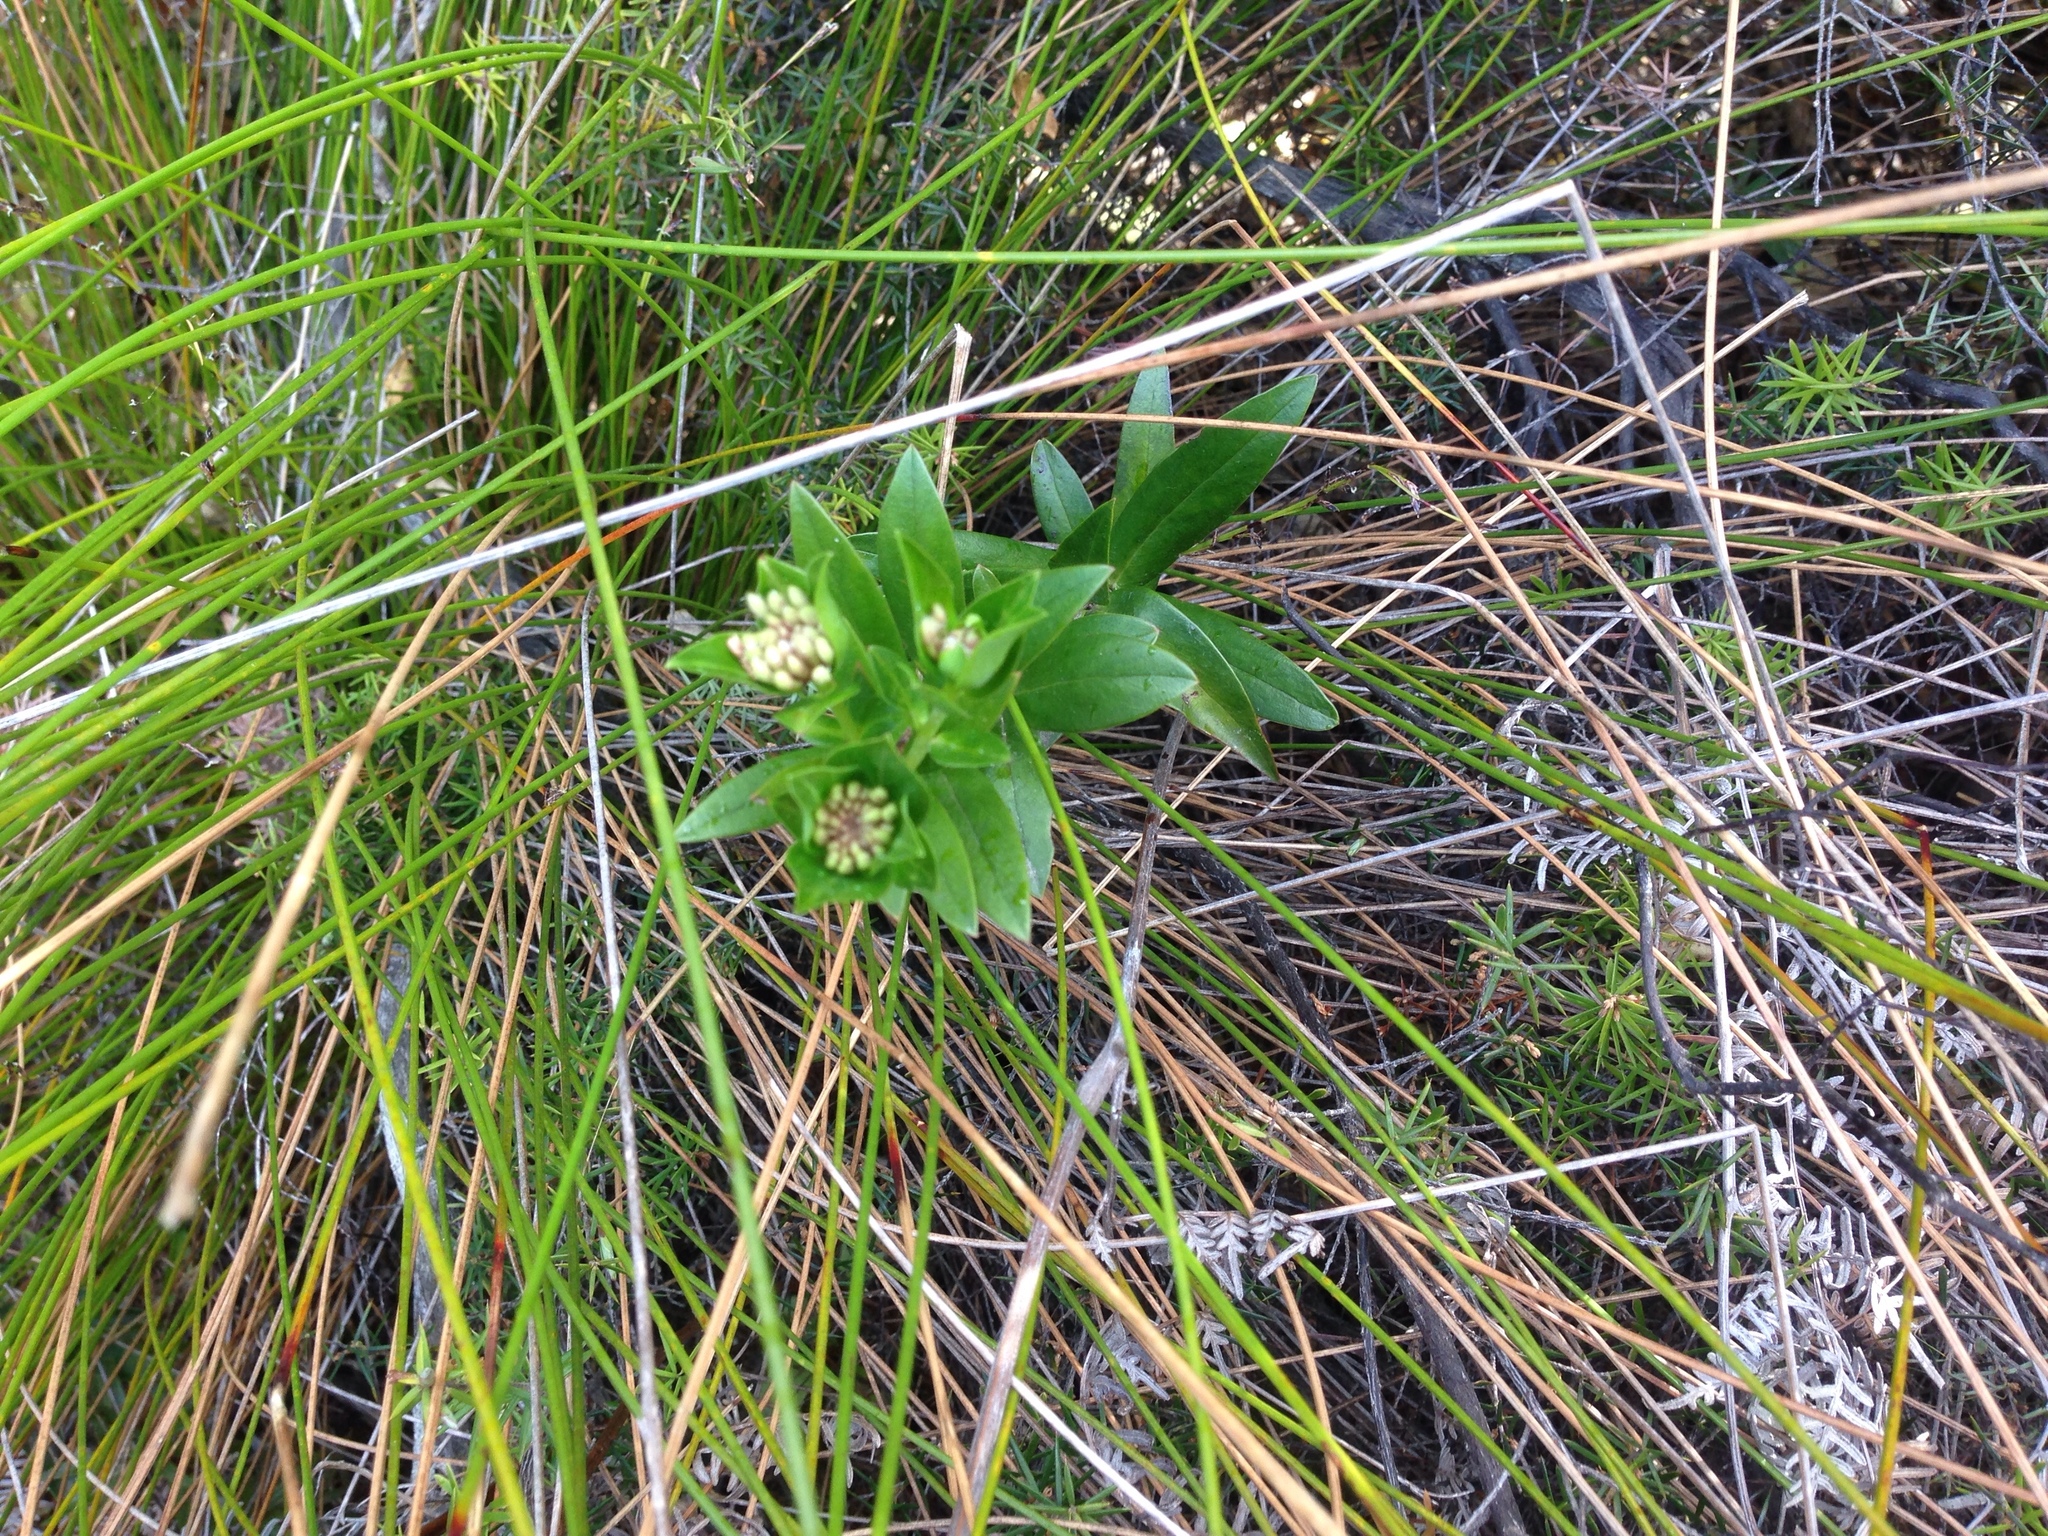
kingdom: Plantae
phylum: Tracheophyta
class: Magnoliopsida
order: Malvales
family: Thymelaeaceae
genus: Pimelea
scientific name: Pimelea longifolia
